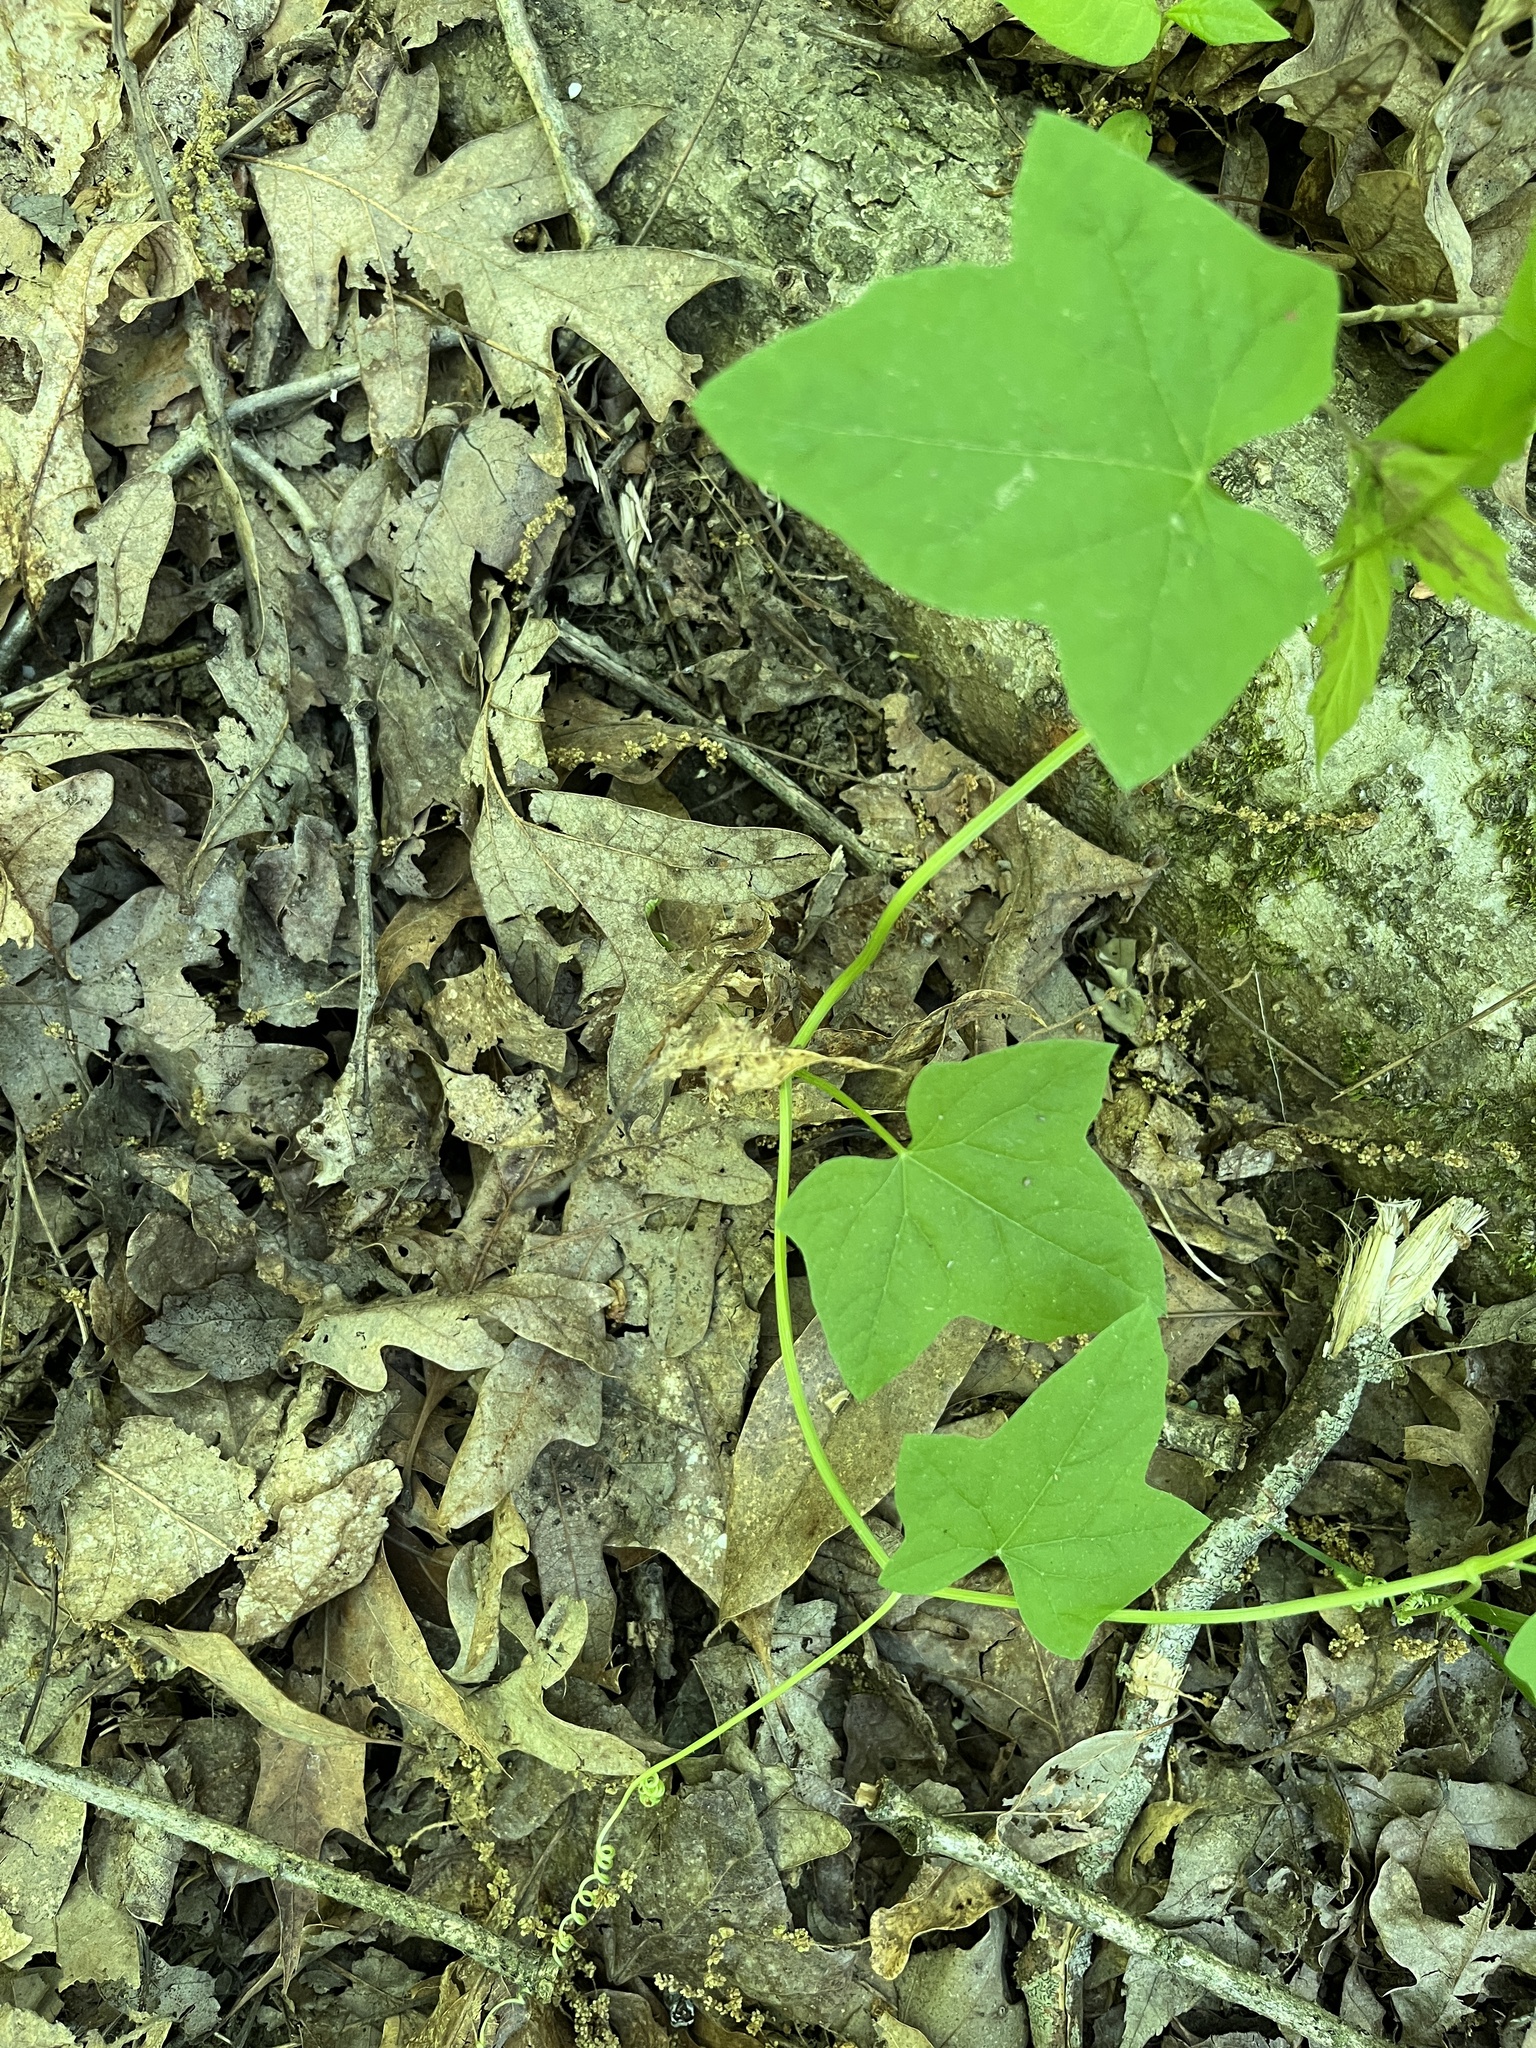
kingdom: Plantae
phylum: Tracheophyta
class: Magnoliopsida
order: Cucurbitales
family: Cucurbitaceae
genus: Echinocystis
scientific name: Echinocystis lobata
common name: Wild cucumber
